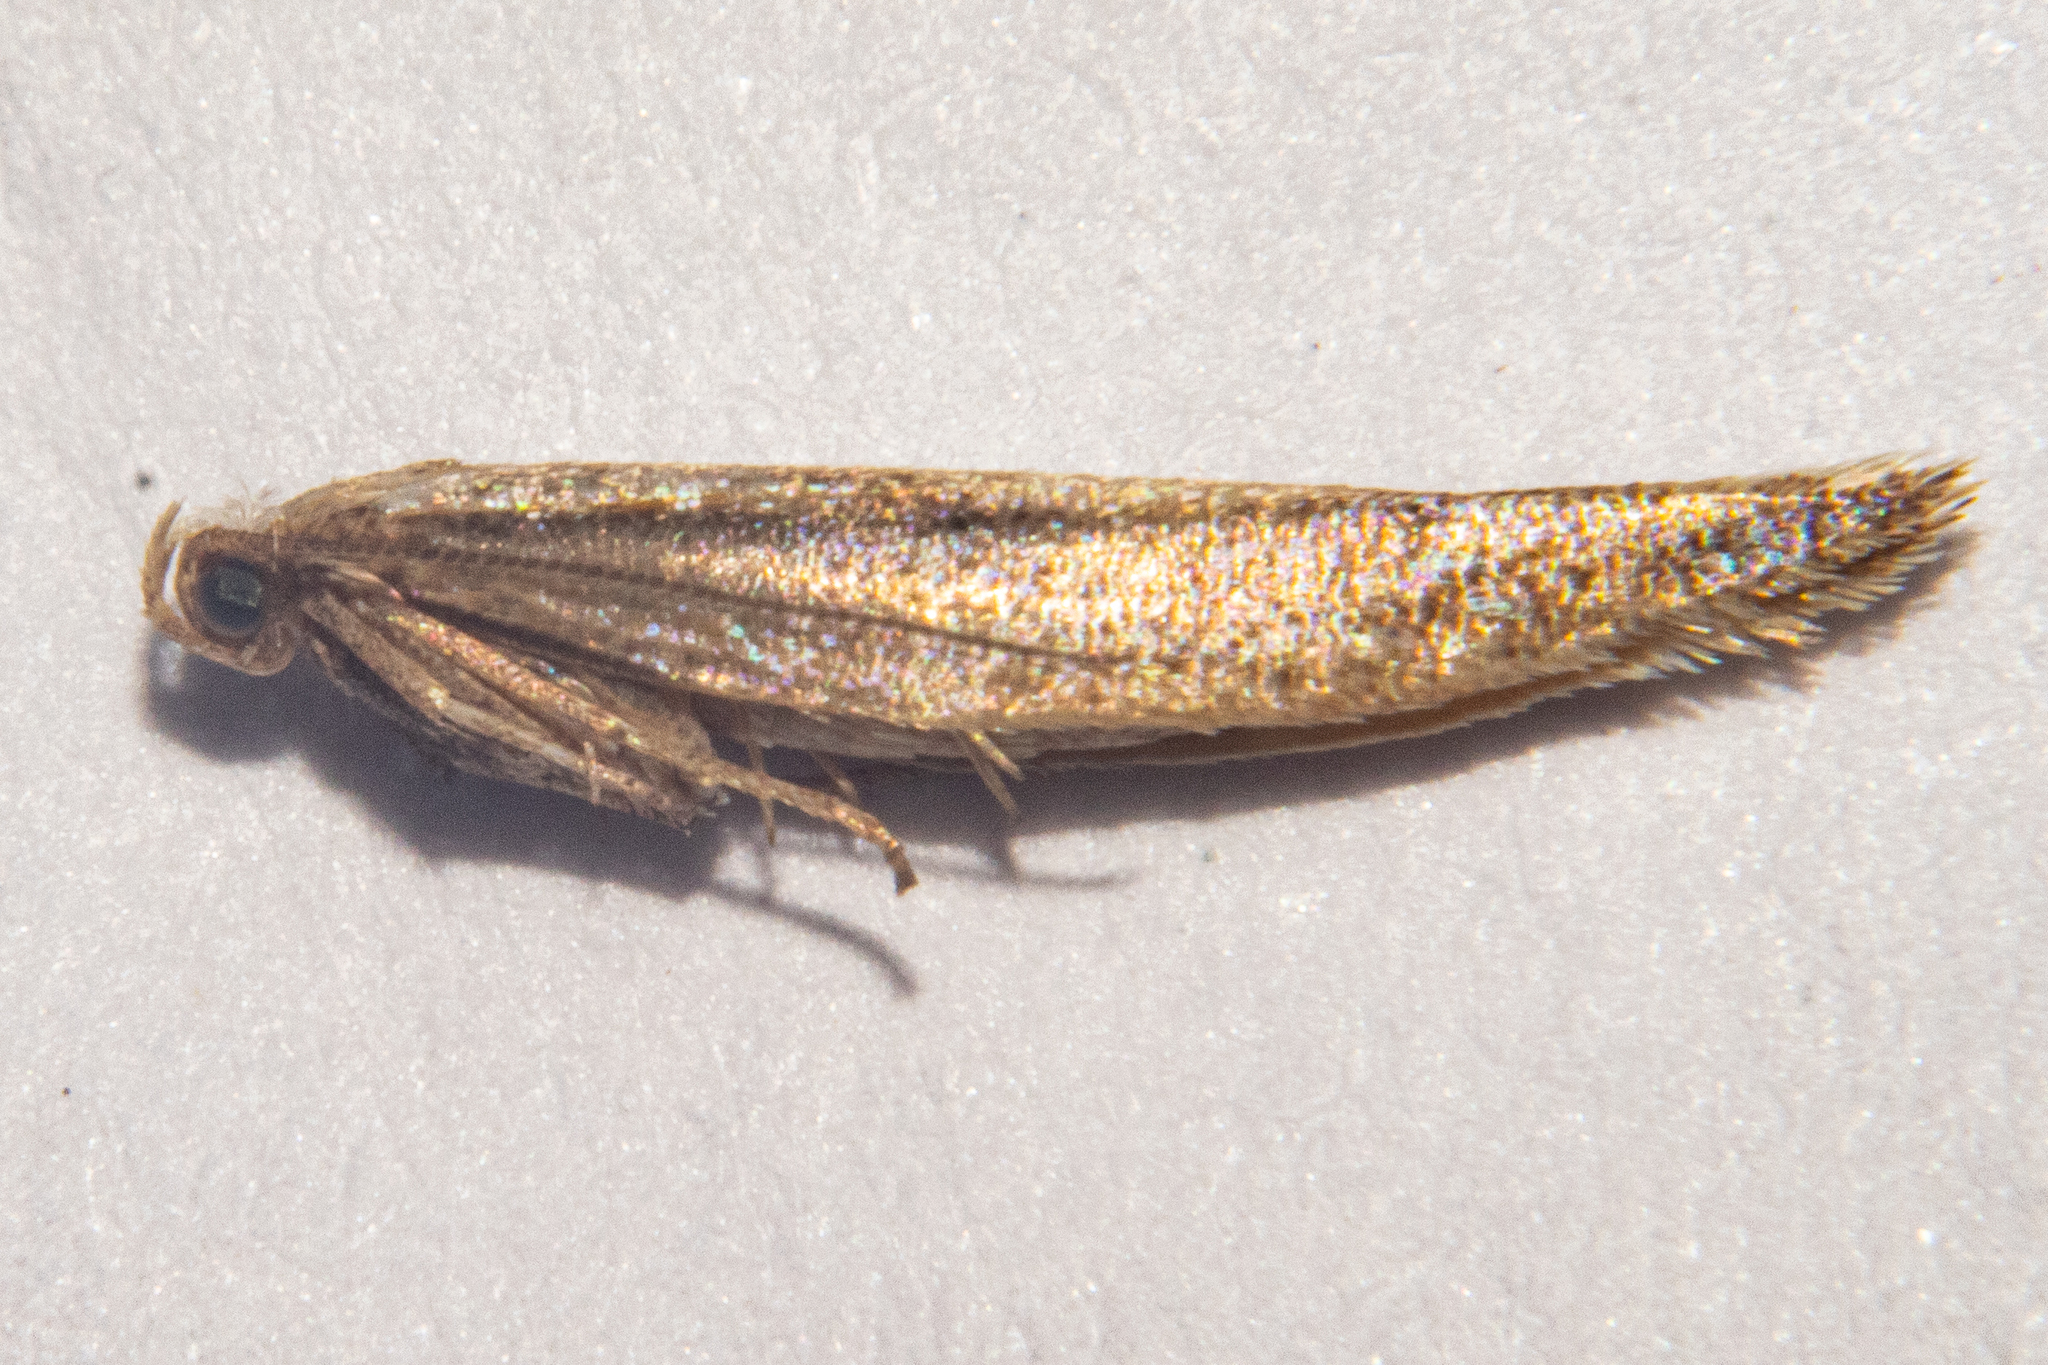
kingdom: Animalia
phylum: Arthropoda
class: Insecta
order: Lepidoptera
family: Yponomeutidae
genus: Kessleria
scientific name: Kessleria copidota
